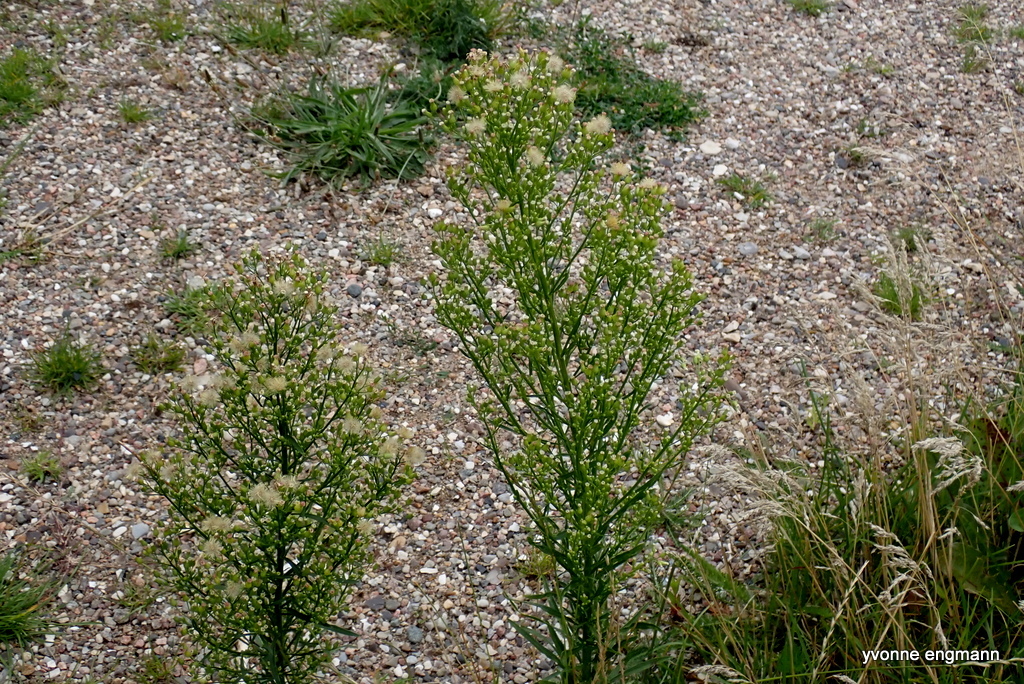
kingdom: Plantae
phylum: Tracheophyta
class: Magnoliopsida
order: Asterales
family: Asteraceae
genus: Erigeron
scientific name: Erigeron canadensis
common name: Canadian fleabane
